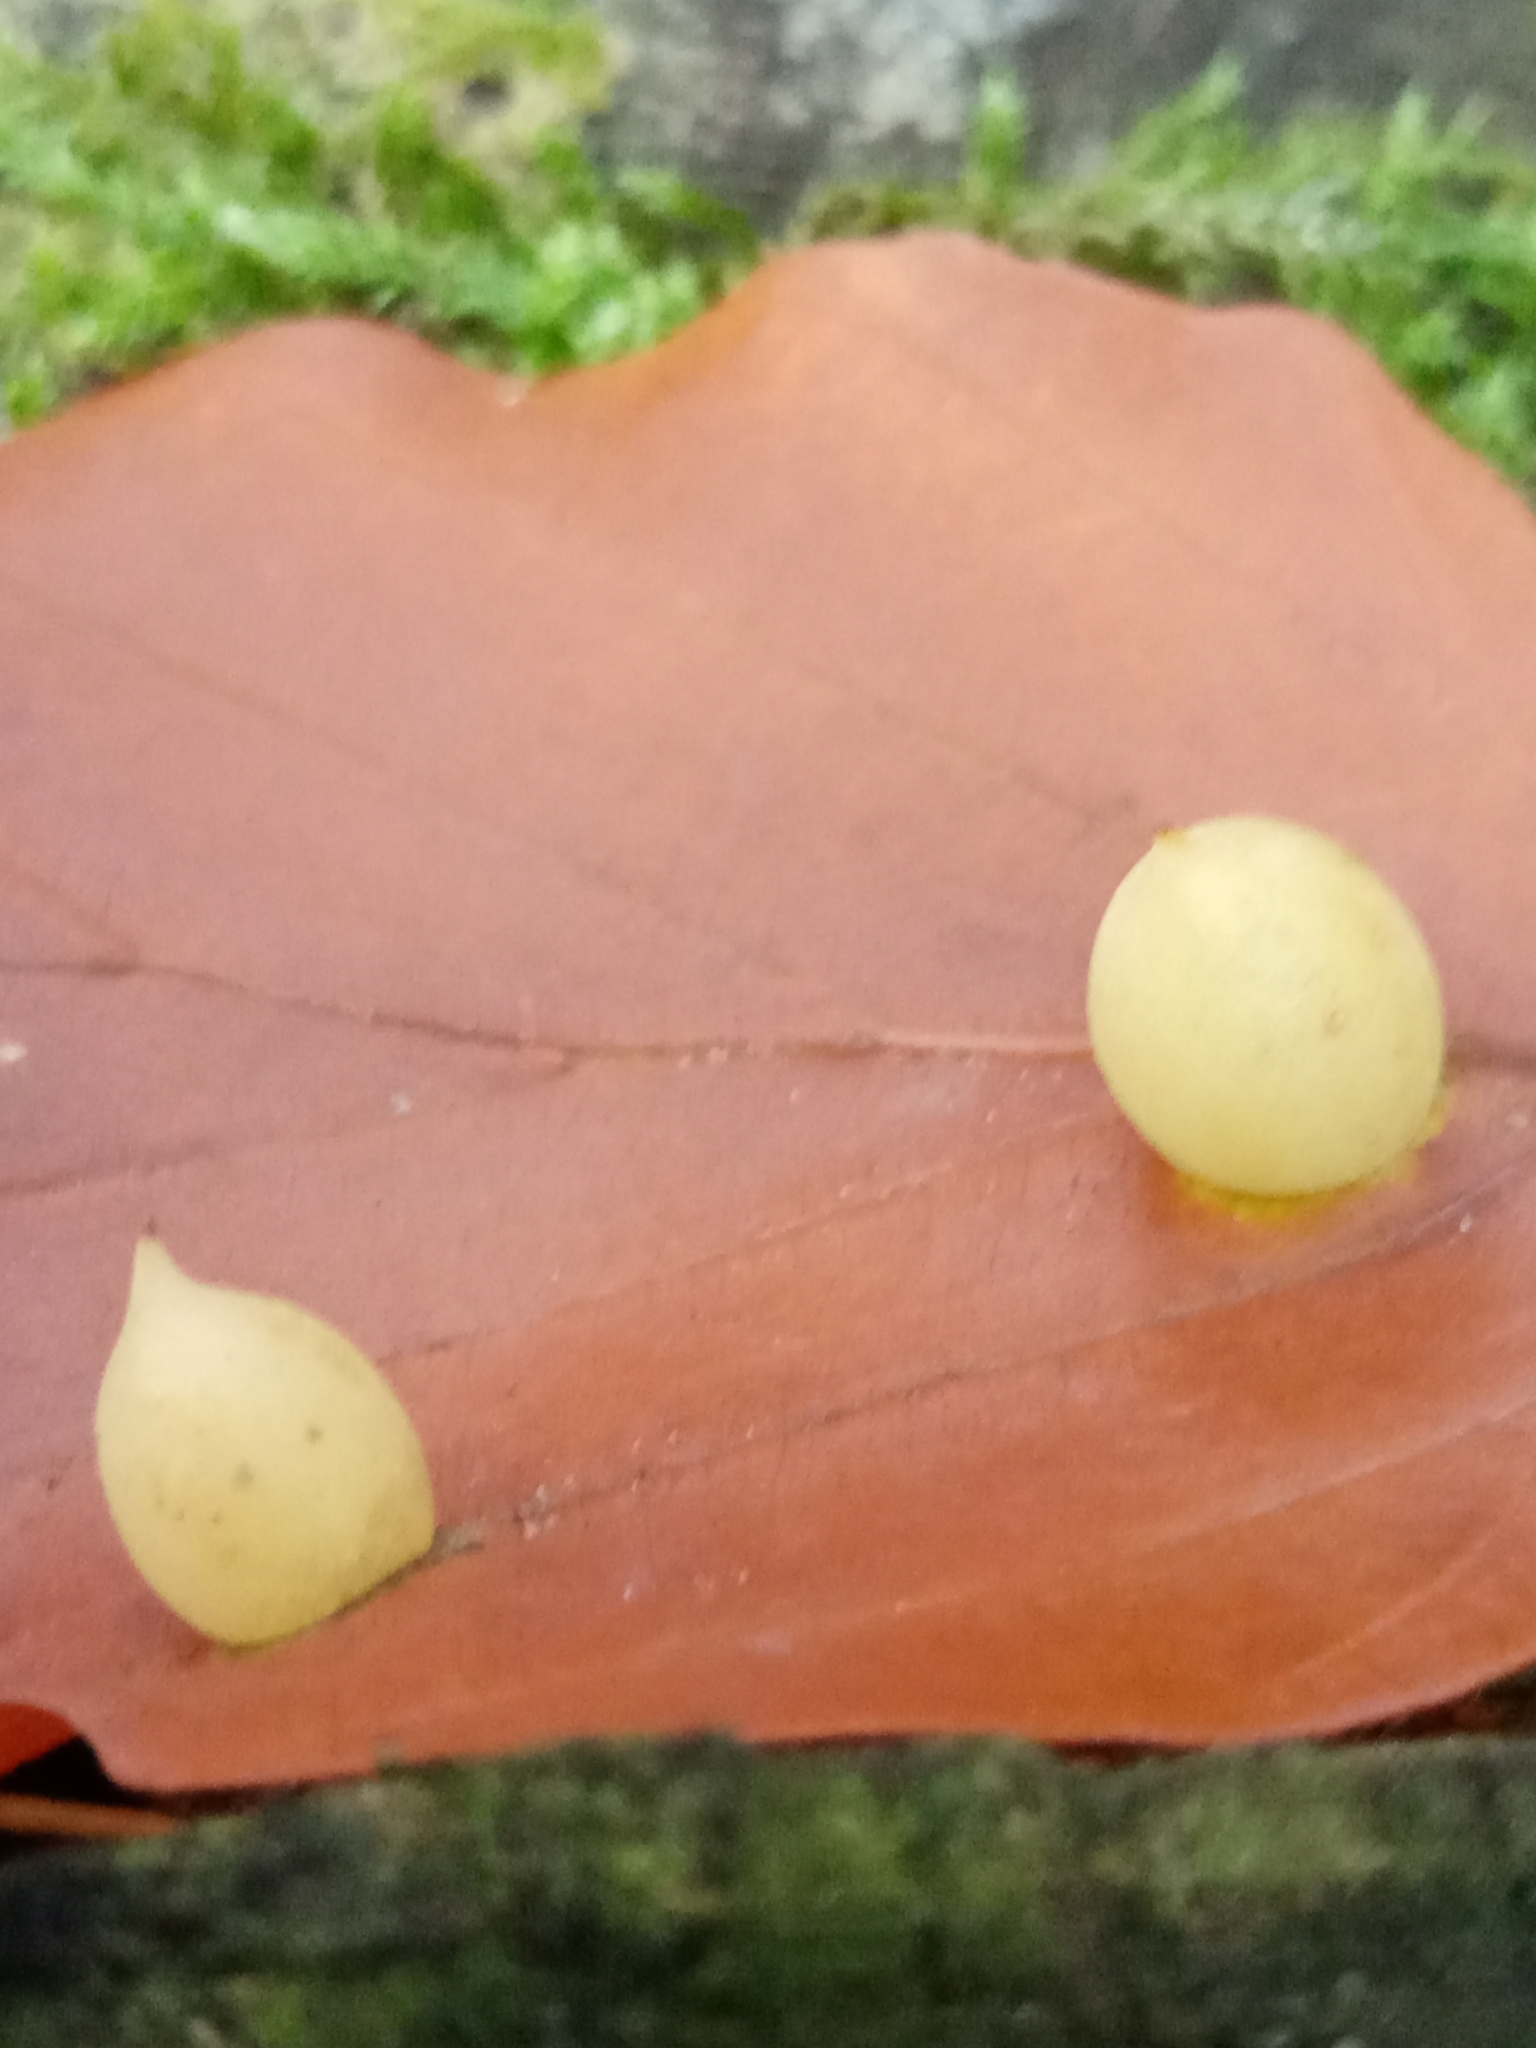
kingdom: Animalia
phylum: Arthropoda
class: Insecta
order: Diptera
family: Cecidomyiidae
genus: Mikiola
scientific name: Mikiola fagi
